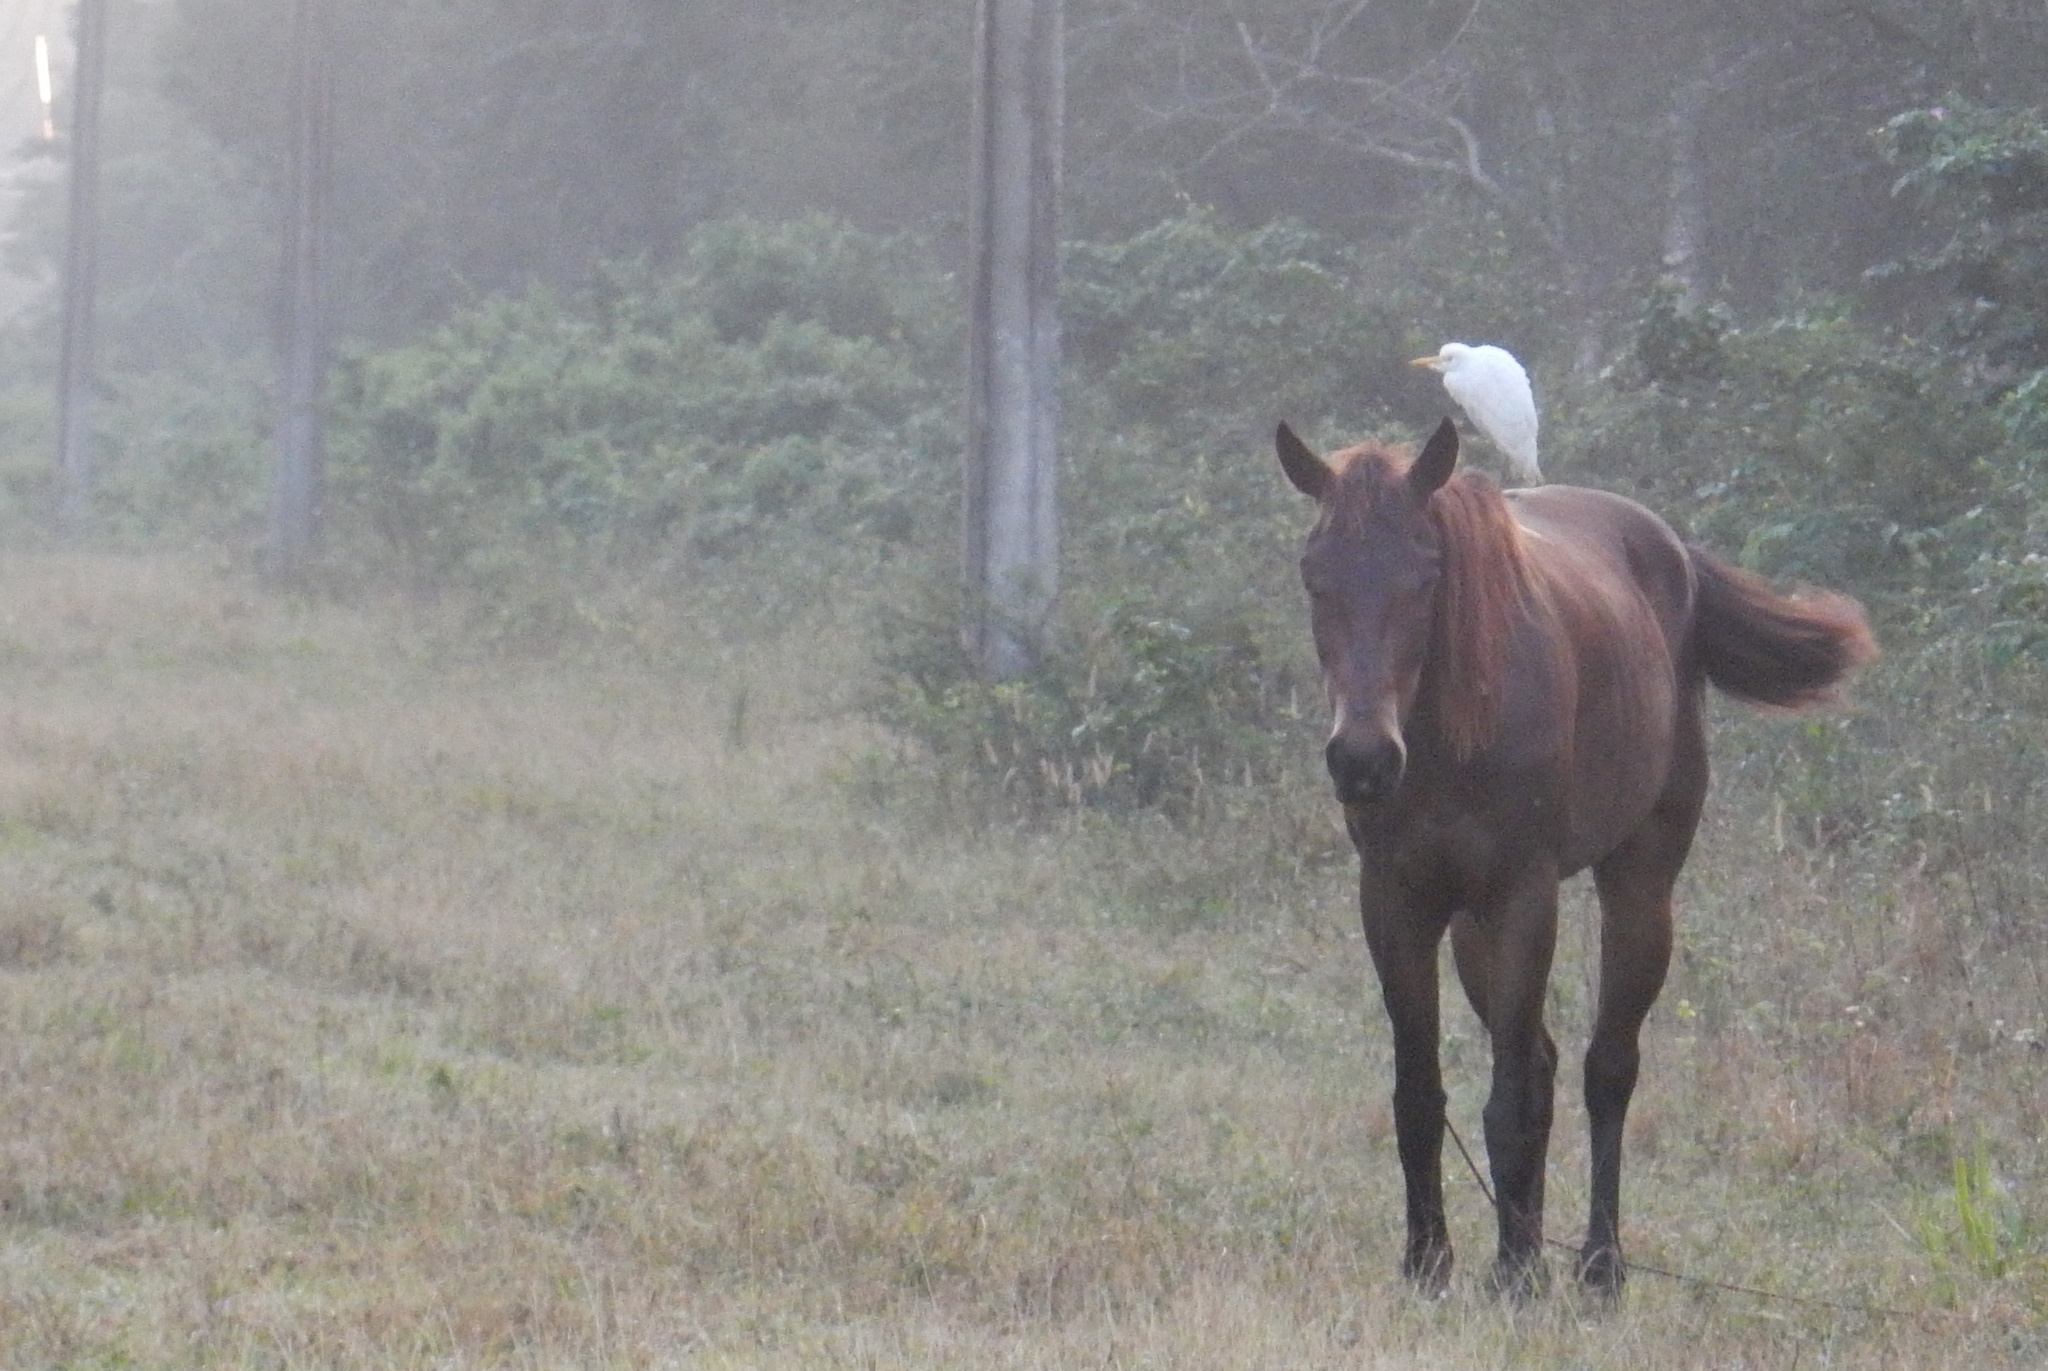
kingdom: Animalia
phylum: Chordata
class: Aves
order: Pelecaniformes
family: Ardeidae
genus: Bubulcus
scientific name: Bubulcus ibis
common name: Cattle egret
